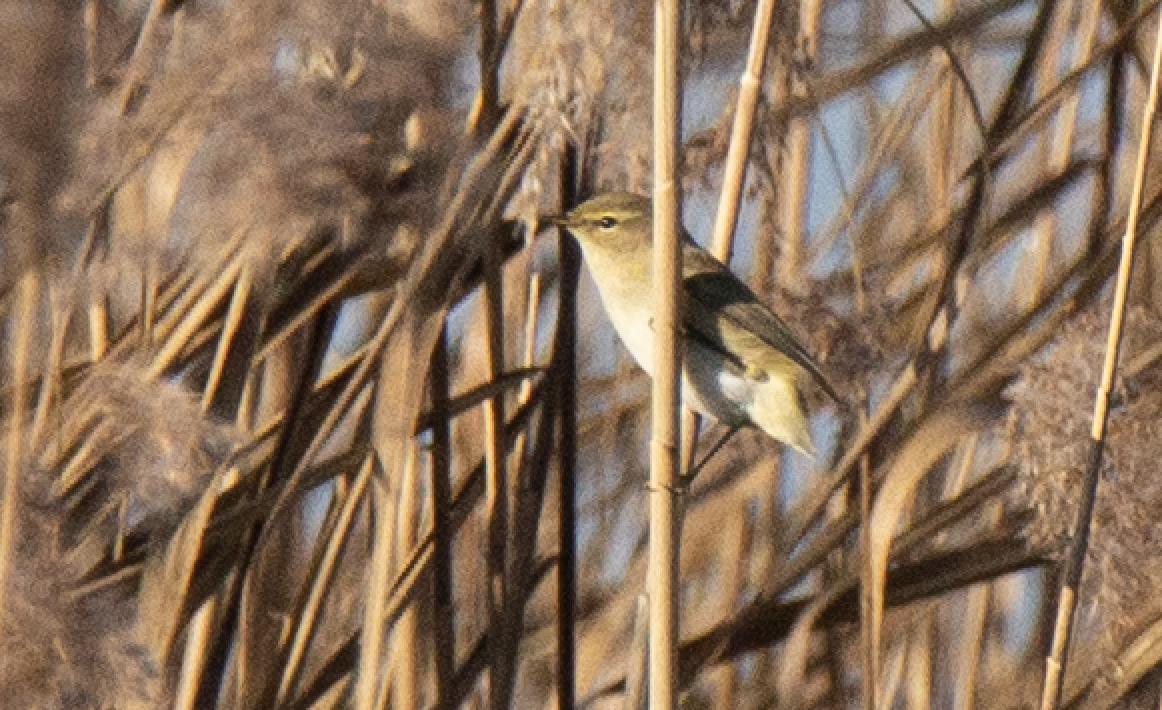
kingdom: Animalia
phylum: Chordata
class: Aves
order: Passeriformes
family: Phylloscopidae
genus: Phylloscopus
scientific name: Phylloscopus collybita
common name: Common chiffchaff
